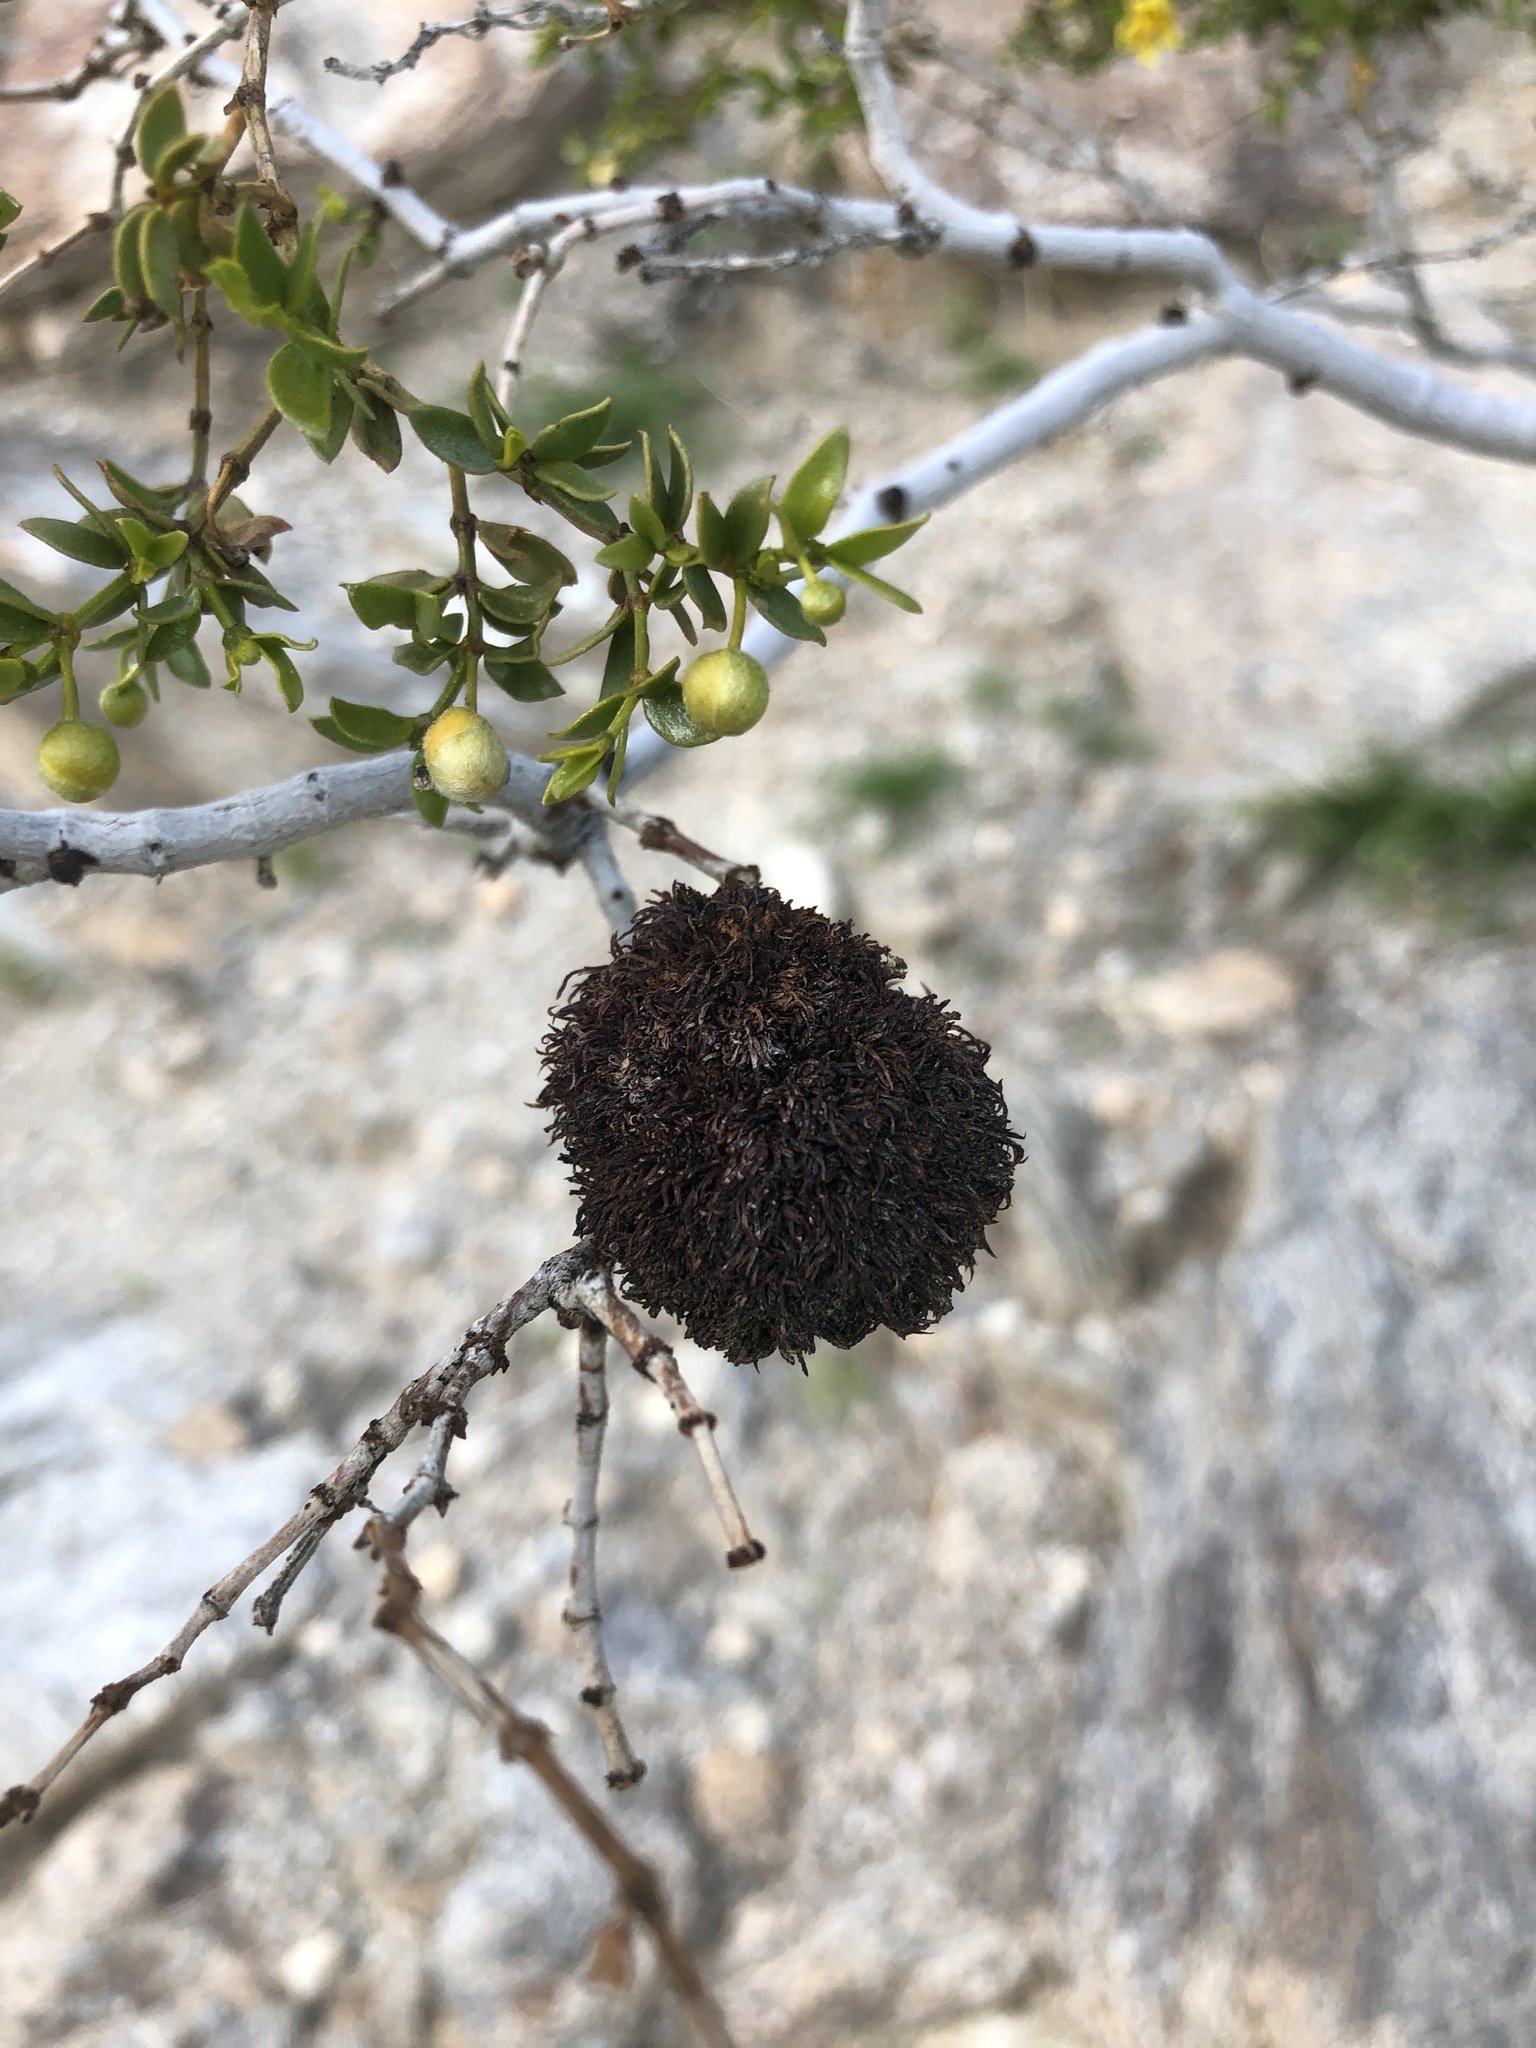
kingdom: Animalia
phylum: Arthropoda
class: Insecta
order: Diptera
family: Cecidomyiidae
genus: Asphondylia
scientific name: Asphondylia auripila
